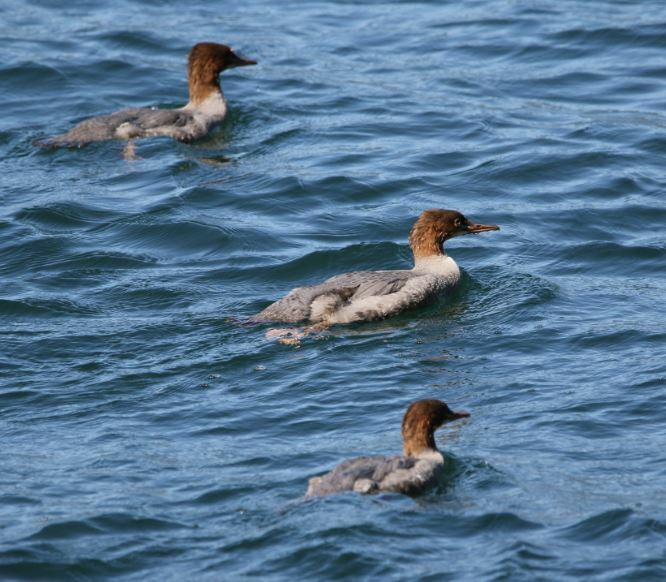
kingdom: Animalia
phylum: Chordata
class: Aves
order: Anseriformes
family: Anatidae
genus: Mergus
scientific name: Mergus merganser
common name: Common merganser
